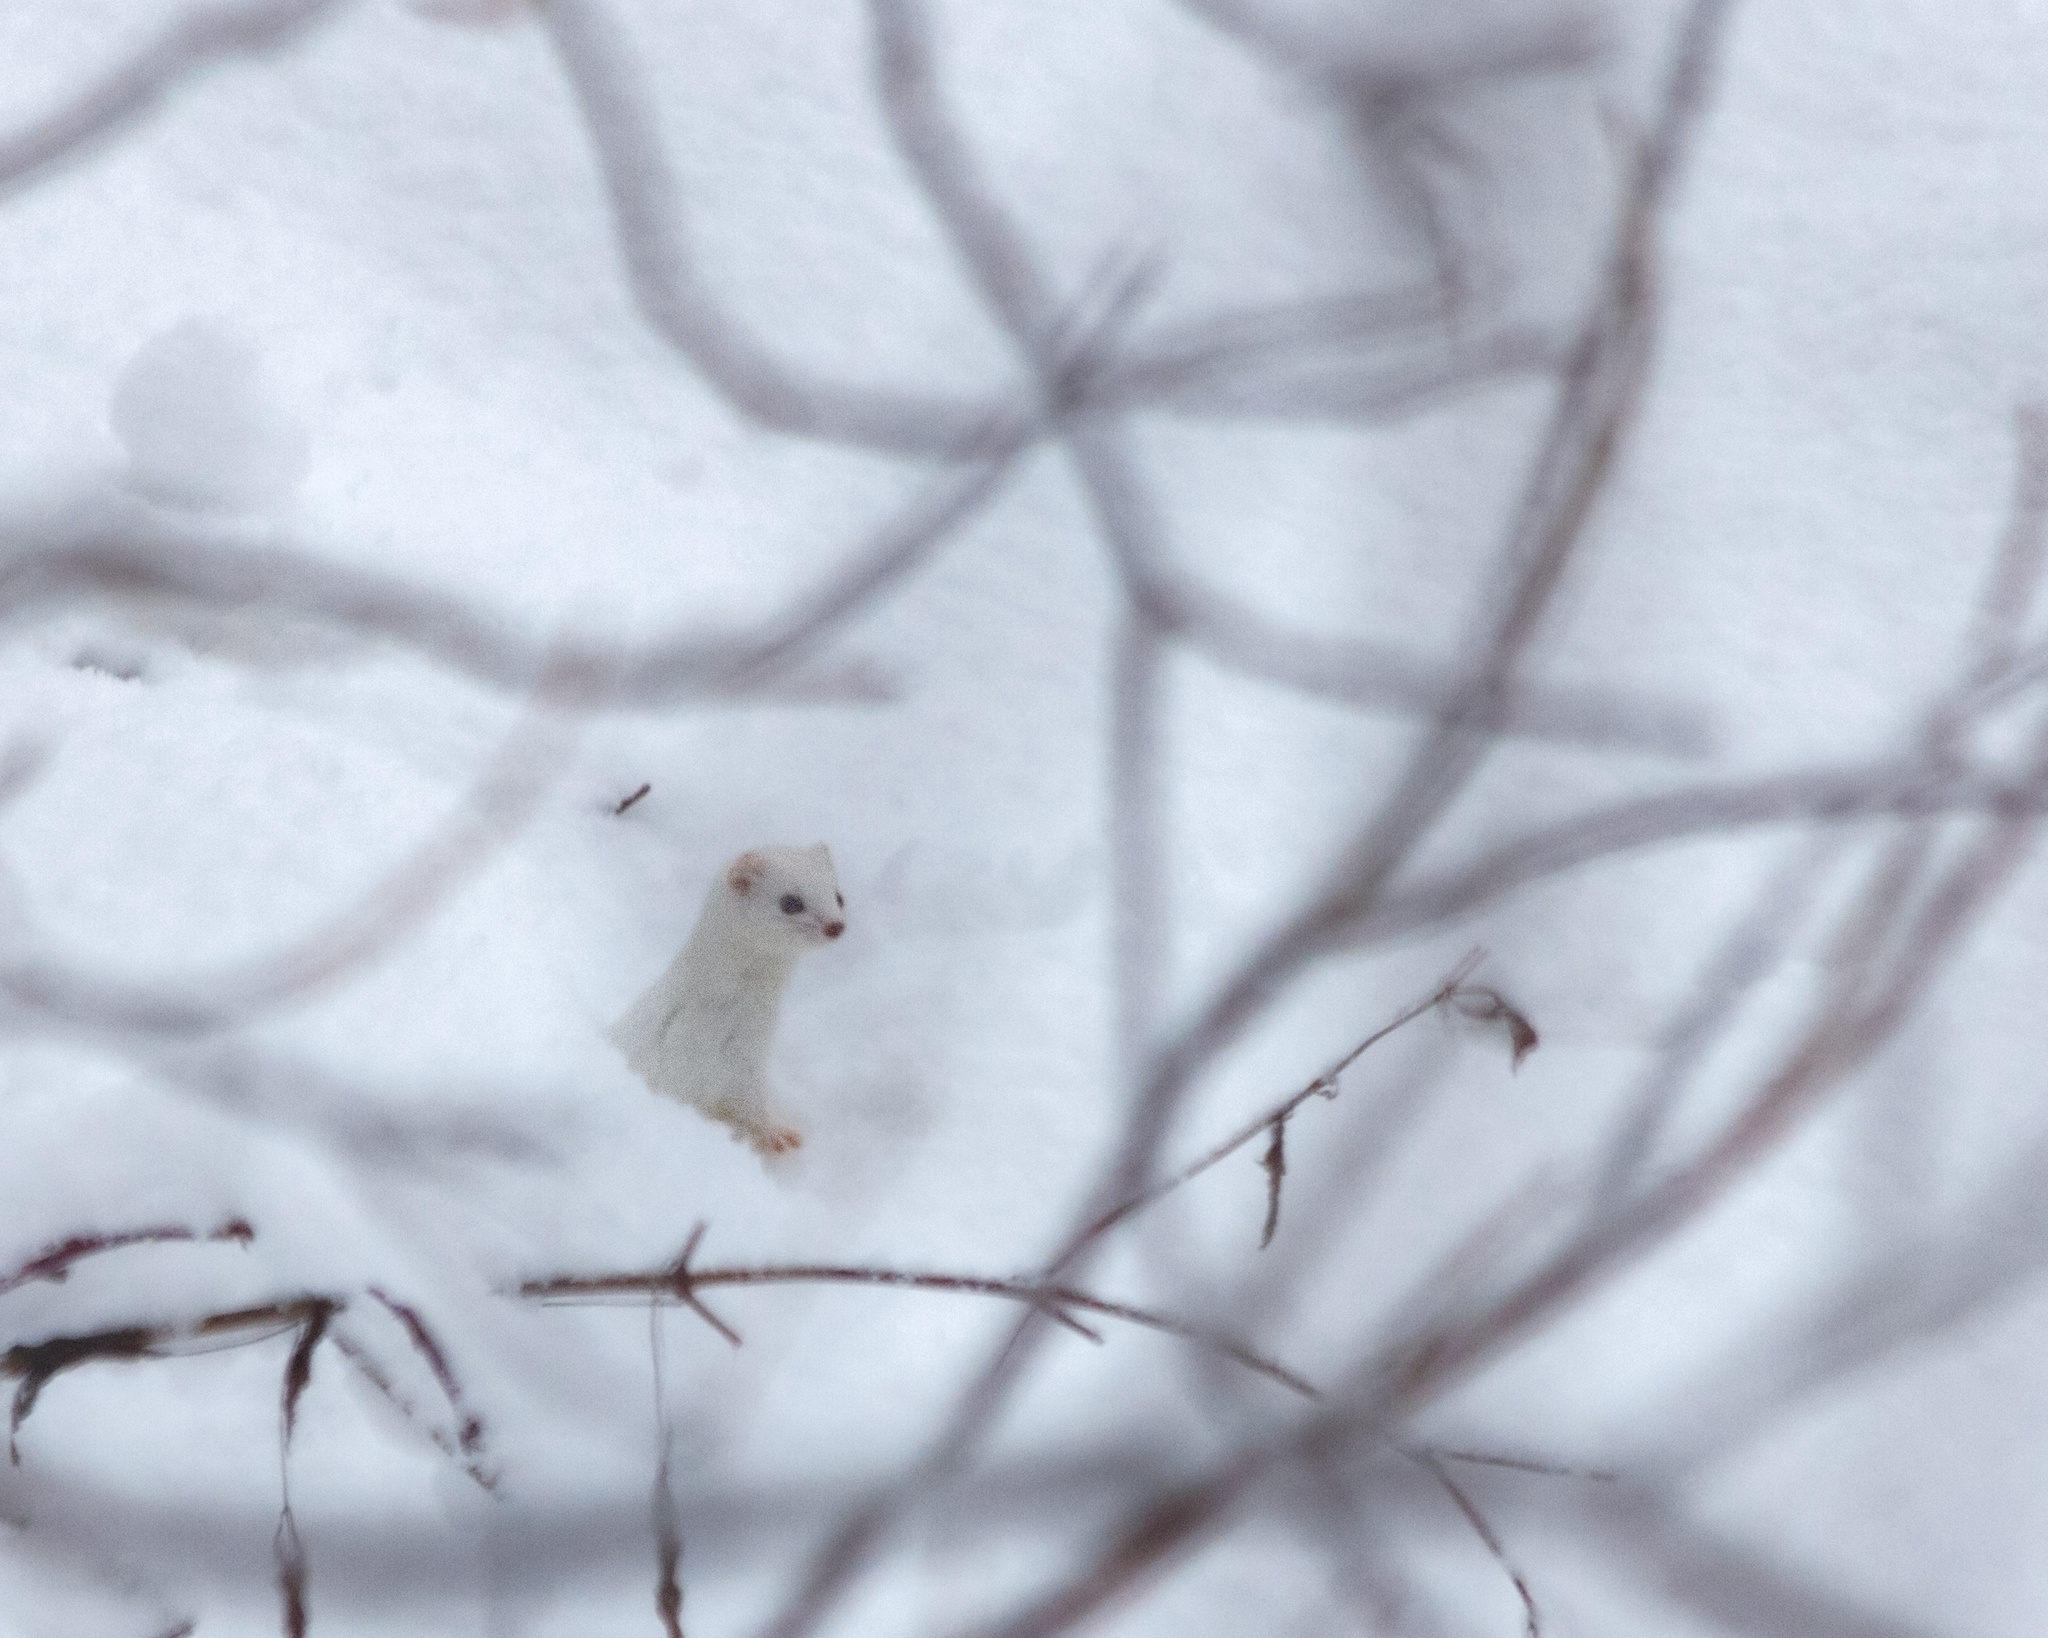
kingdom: Animalia
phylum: Chordata
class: Mammalia
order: Carnivora
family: Mustelidae
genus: Mustela
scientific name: Mustela nivalis
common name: Least weasel
